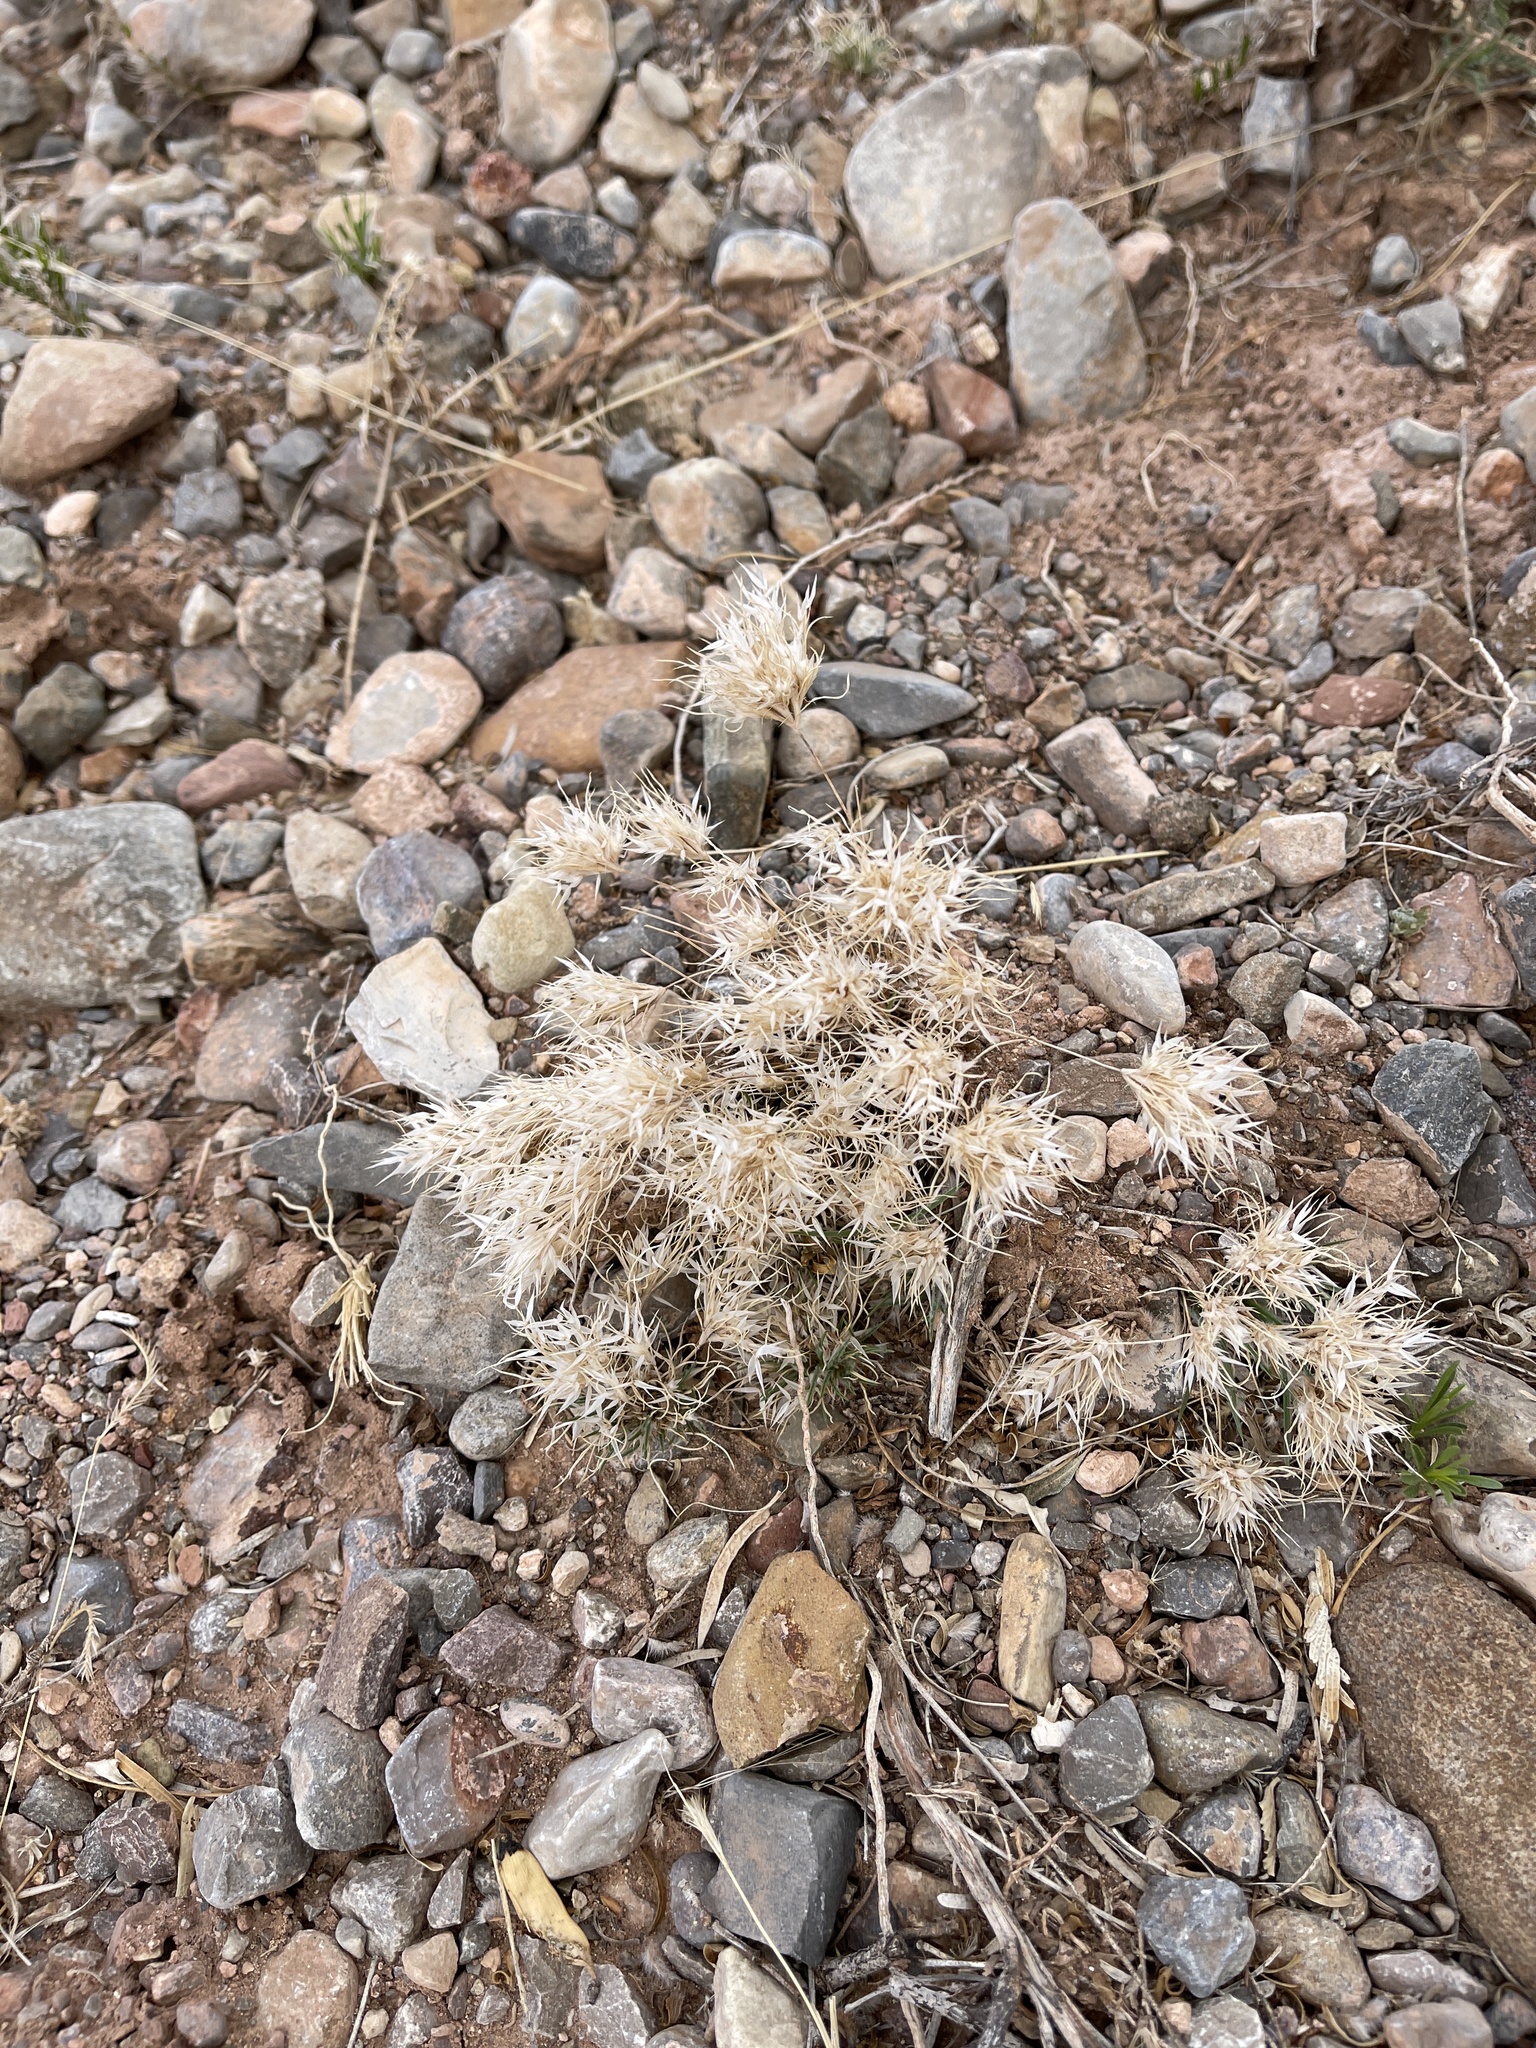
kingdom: Plantae
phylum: Tracheophyta
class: Liliopsida
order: Poales
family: Poaceae
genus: Dasyochloa
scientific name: Dasyochloa pulchella
